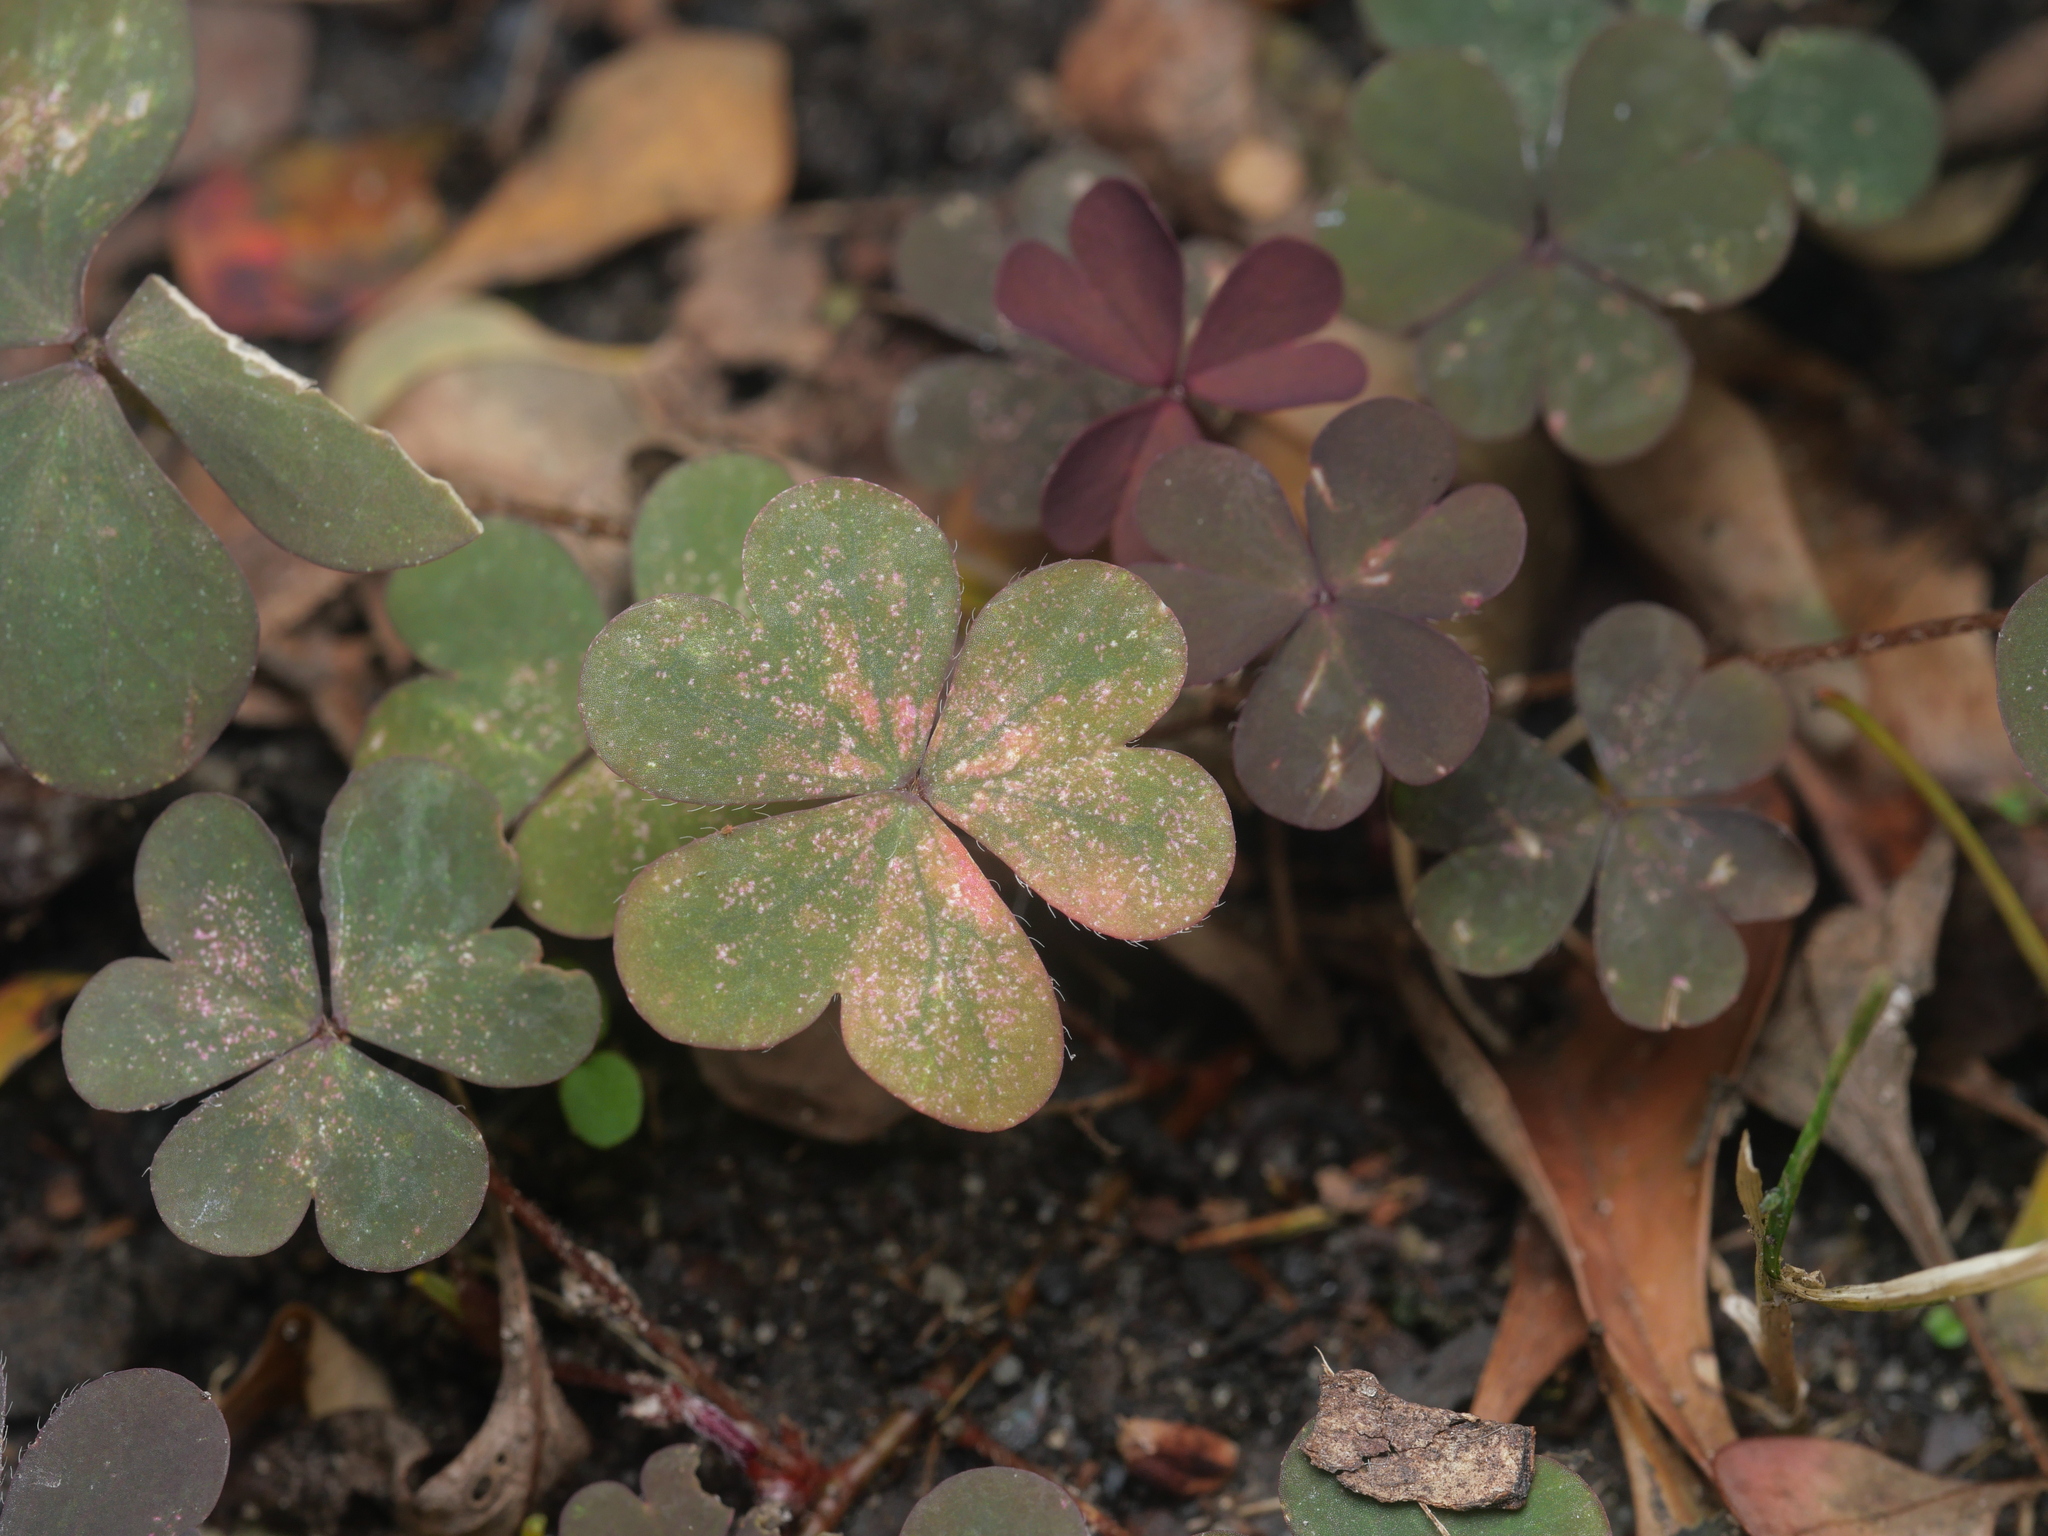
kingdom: Plantae
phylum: Tracheophyta
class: Magnoliopsida
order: Oxalidales
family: Oxalidaceae
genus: Oxalis
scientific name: Oxalis corniculata
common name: Procumbent yellow-sorrel
